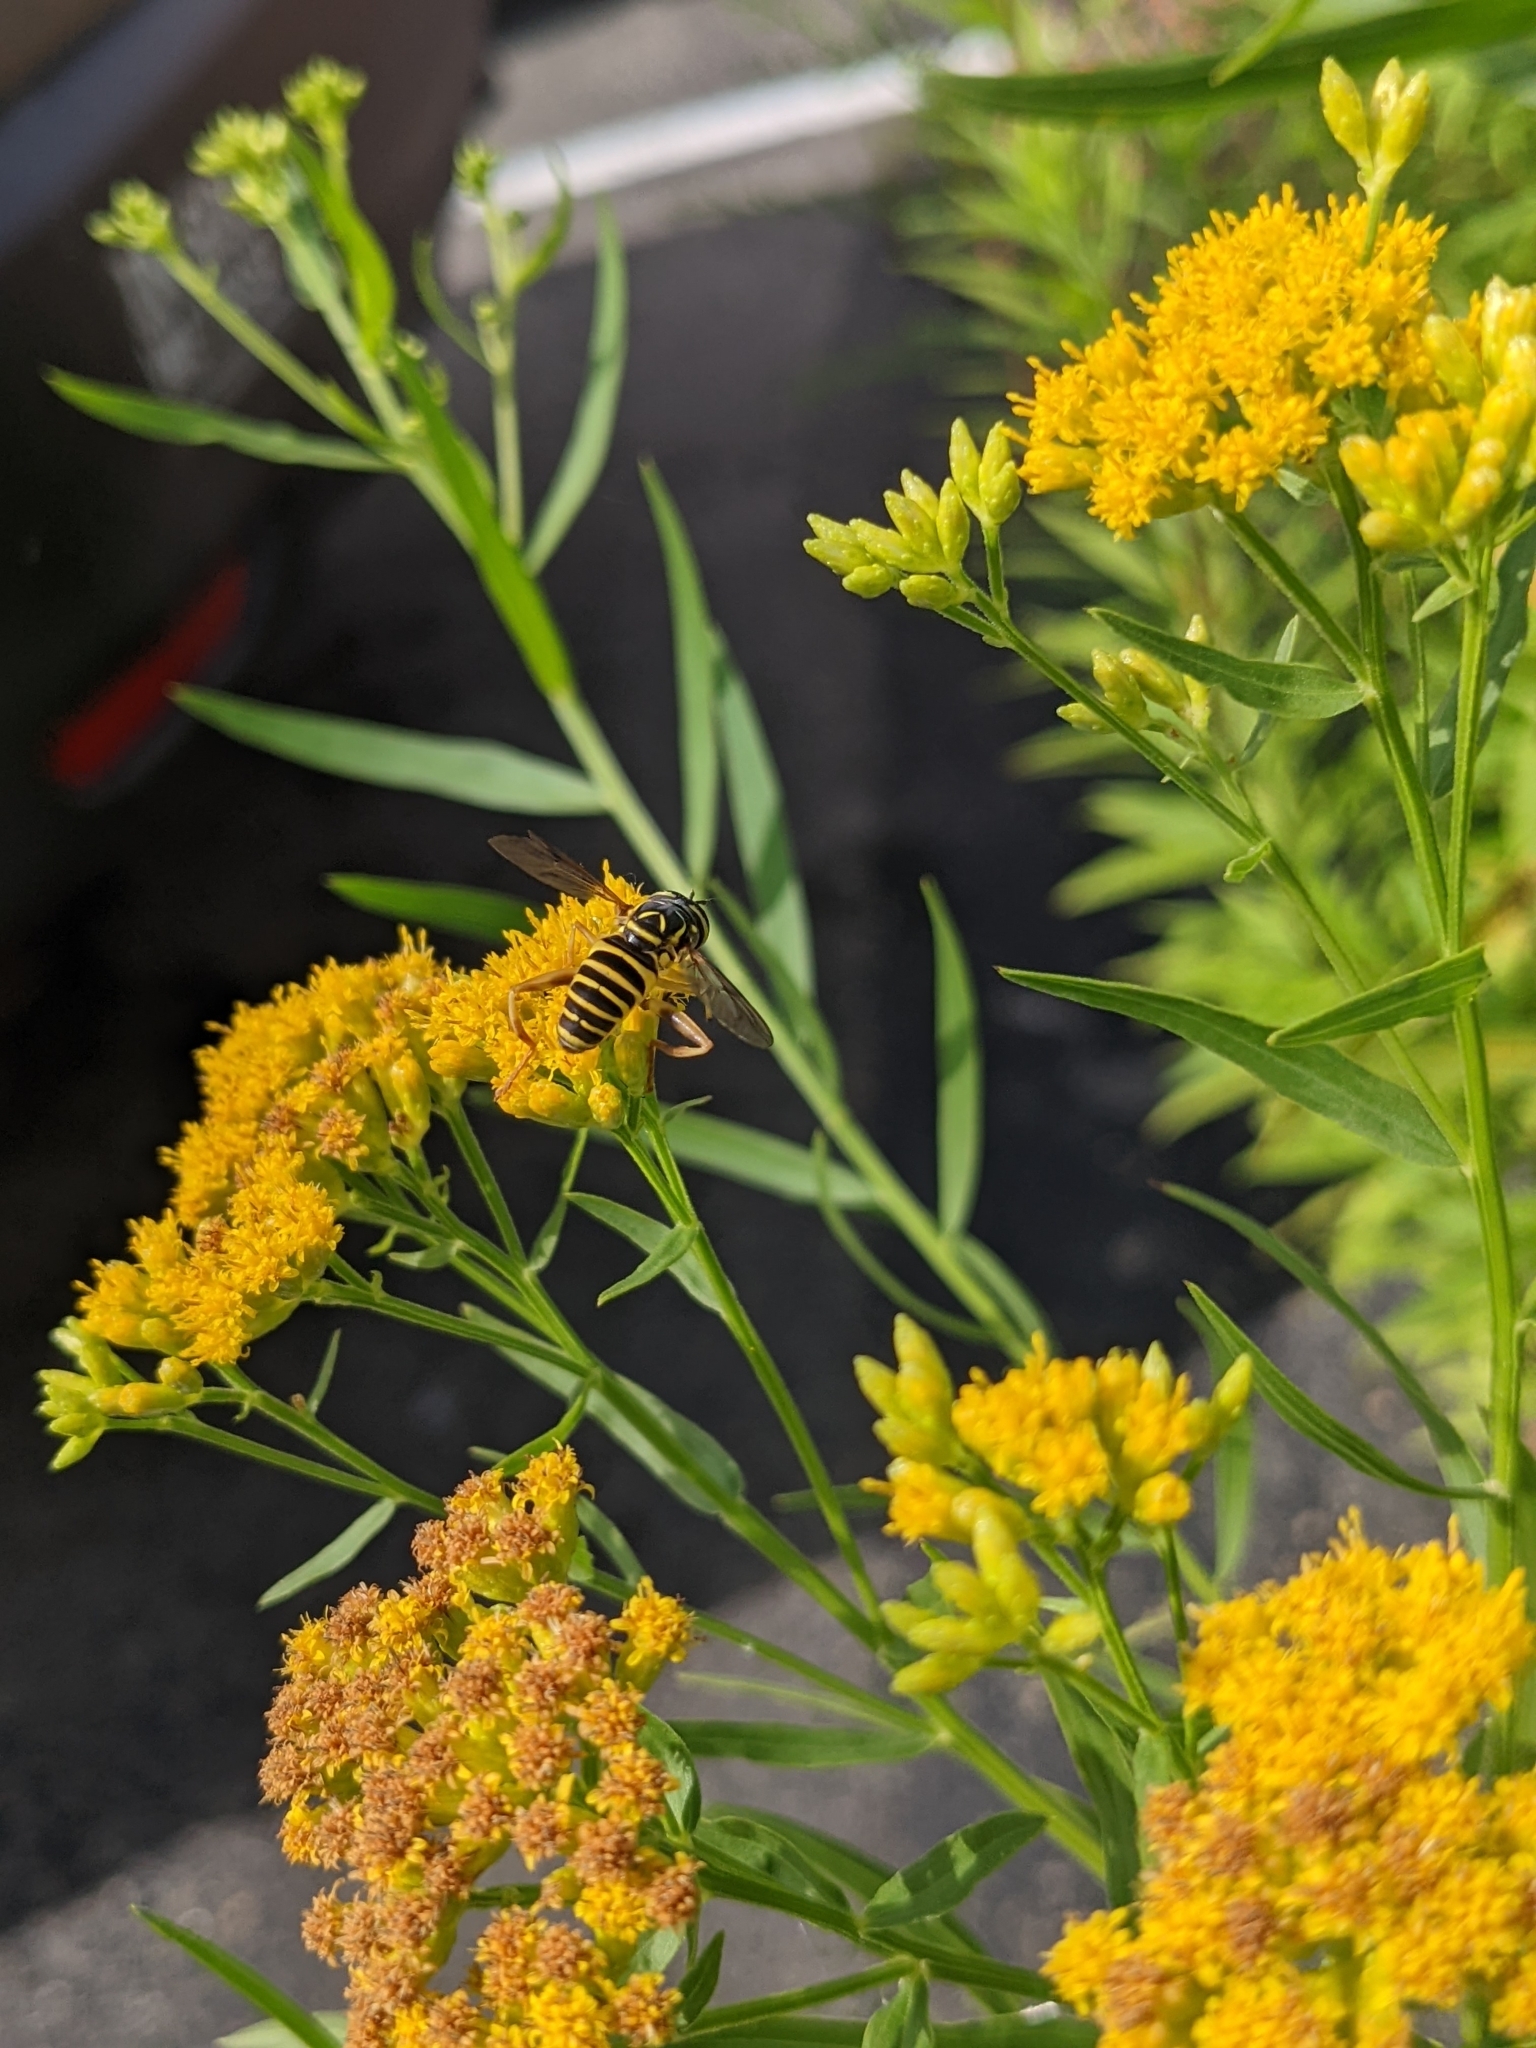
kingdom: Animalia
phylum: Arthropoda
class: Insecta
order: Diptera
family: Syrphidae
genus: Spilomyia
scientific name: Spilomyia longicornis
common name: Eastern hornet fly
